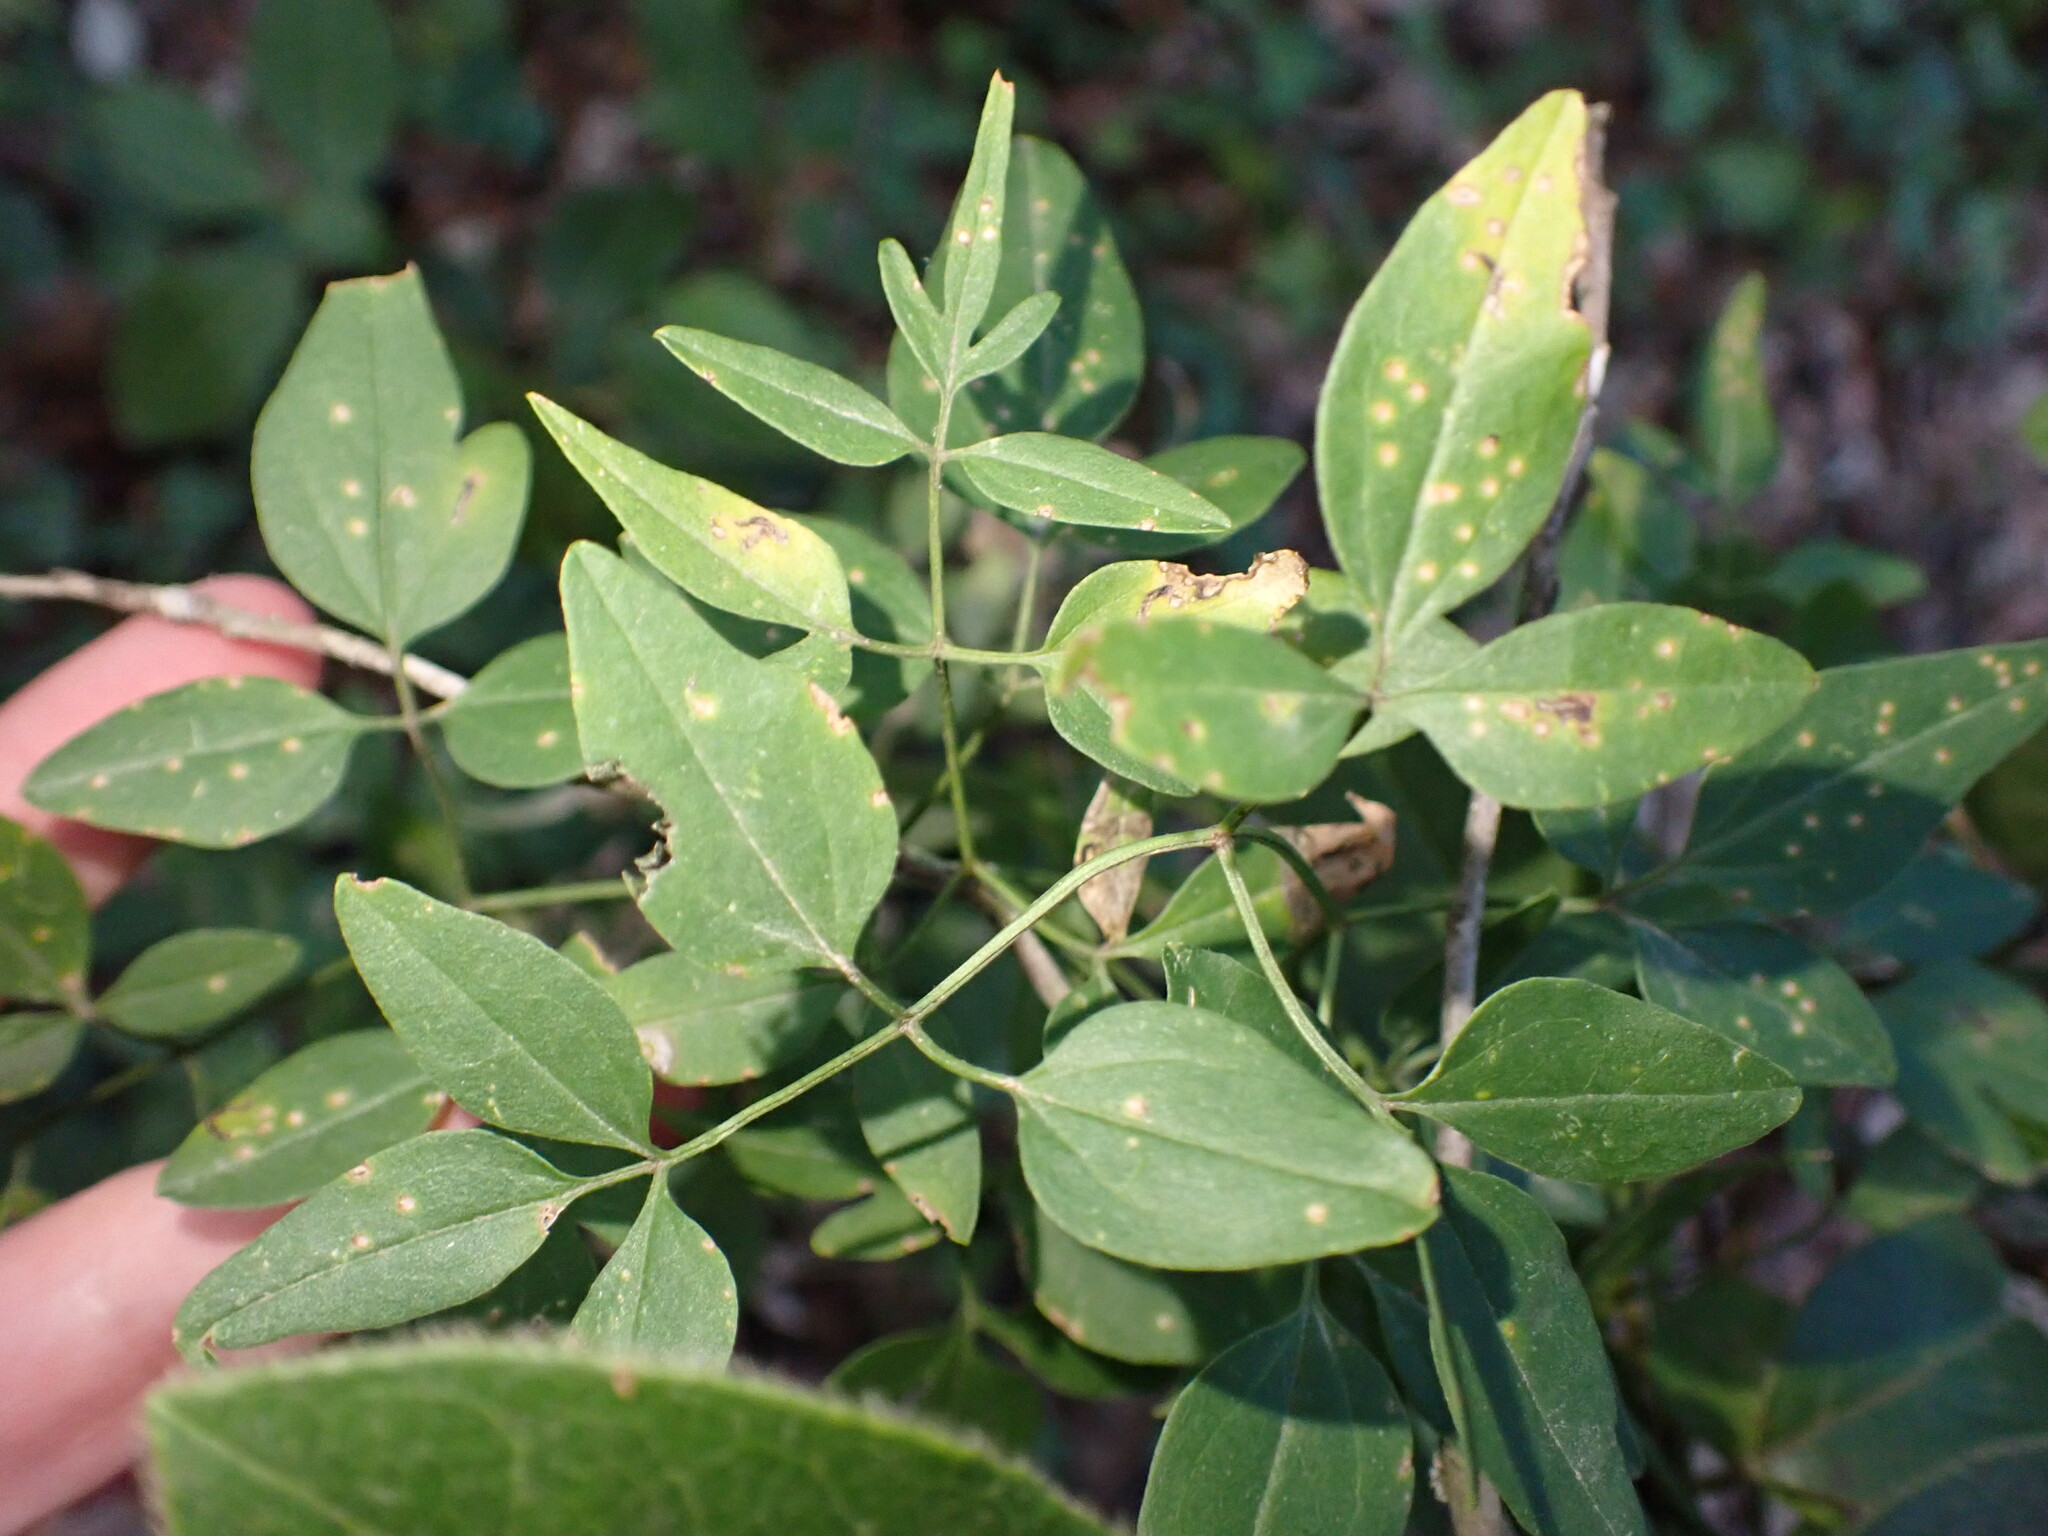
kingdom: Plantae
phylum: Tracheophyta
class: Magnoliopsida
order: Ranunculales
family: Ranunculaceae
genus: Clematis
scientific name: Clematis flammula
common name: Virgin's-bower
